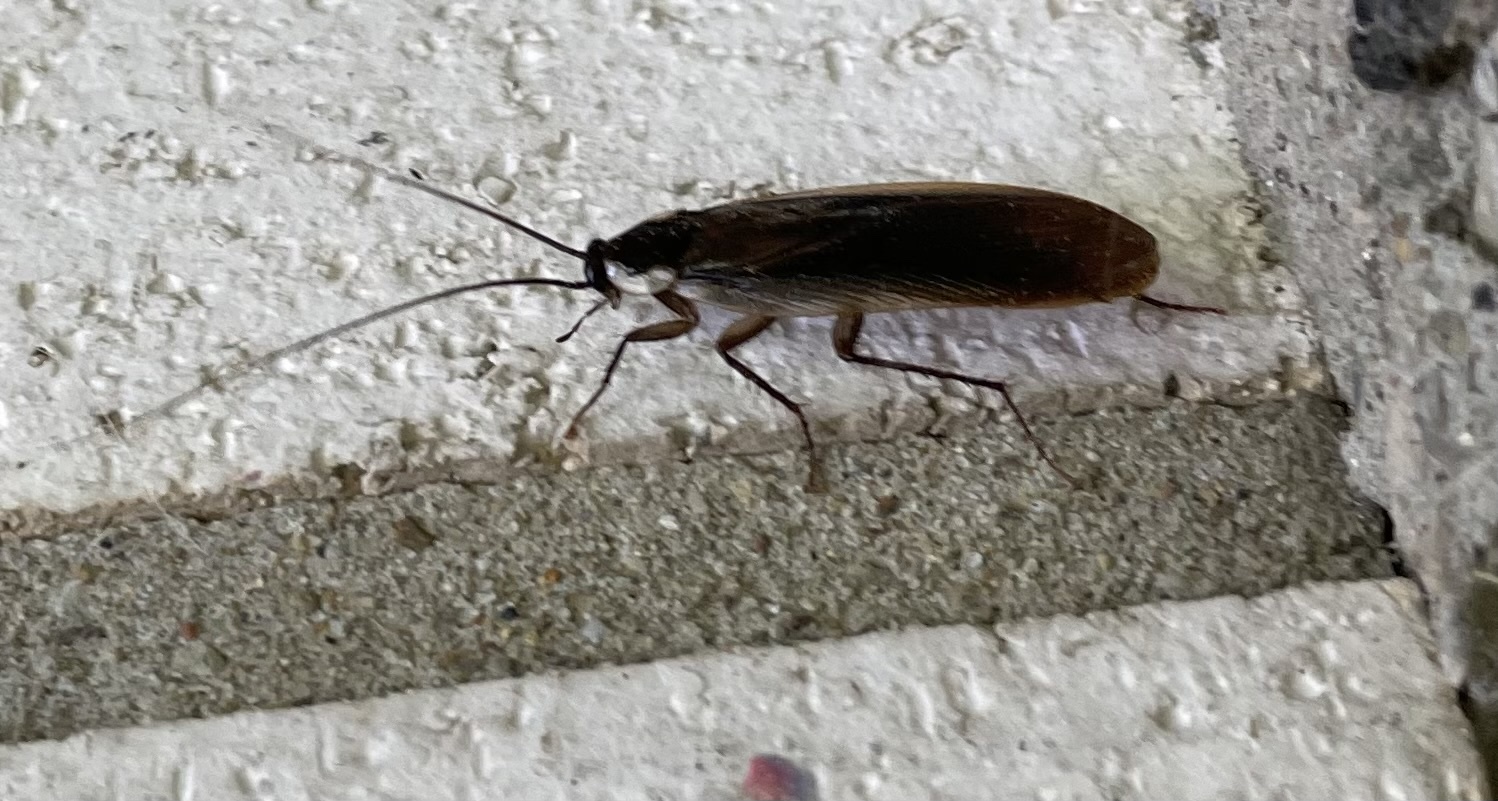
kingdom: Animalia
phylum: Arthropoda
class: Insecta
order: Blattodea
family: Ectobiidae
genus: Parcoblatta
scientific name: Parcoblatta pennsylvanica
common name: Pennsylvanian wood cockroach
